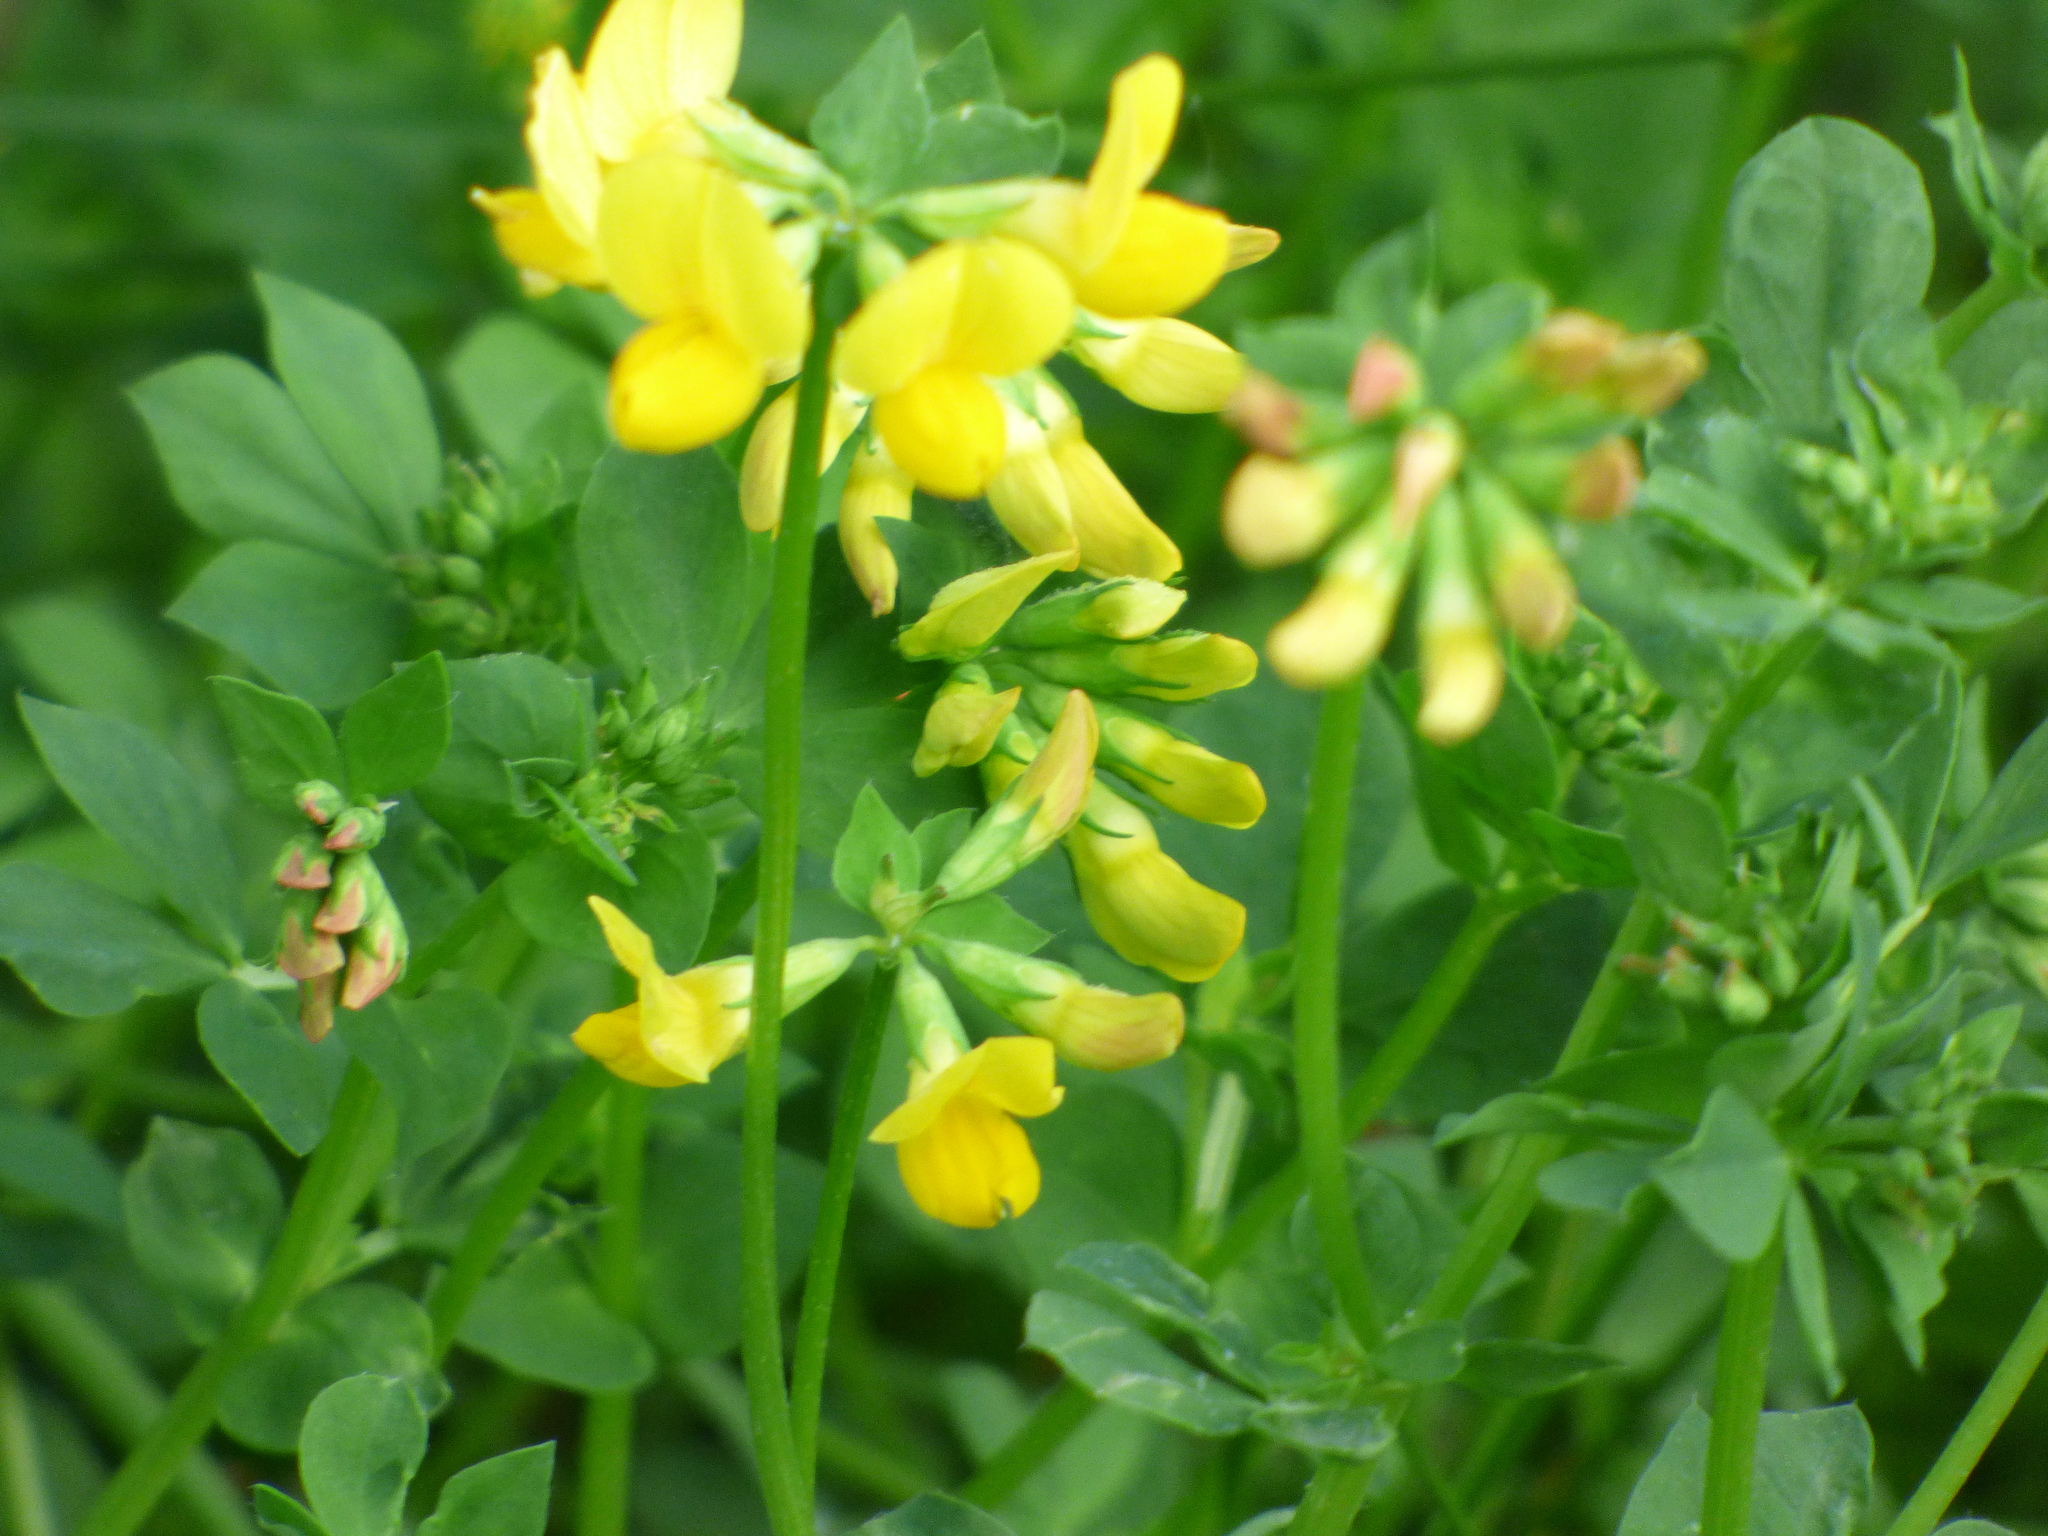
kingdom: Plantae
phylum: Tracheophyta
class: Magnoliopsida
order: Fabales
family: Fabaceae
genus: Lotus
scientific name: Lotus corniculatus
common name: Common bird's-foot-trefoil
